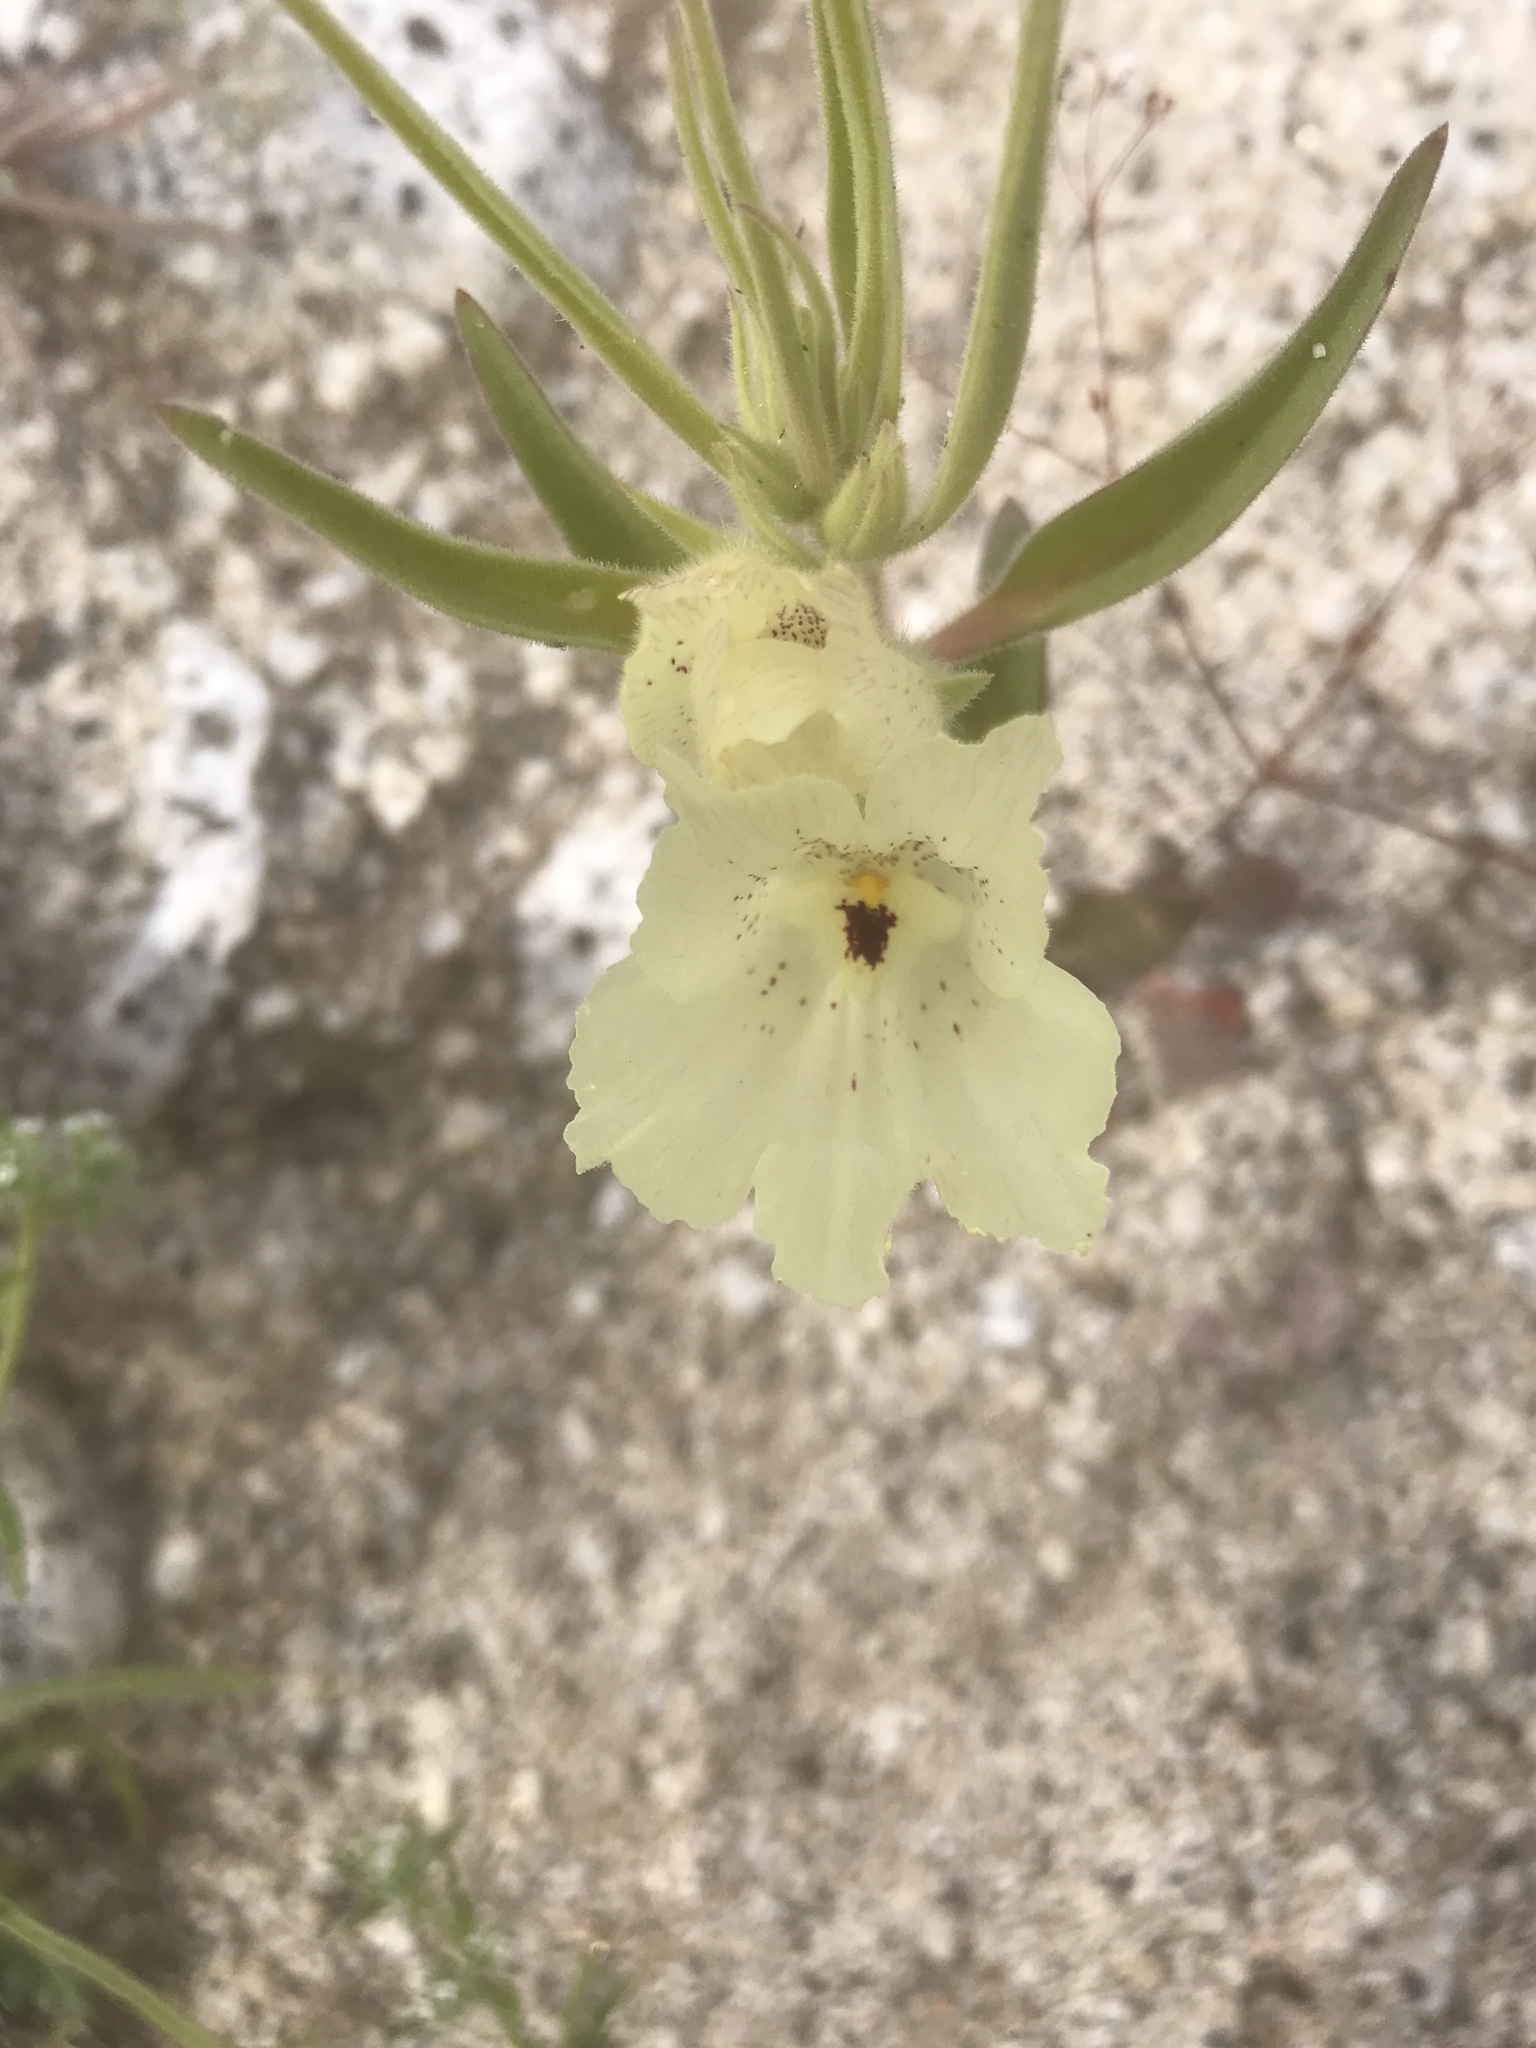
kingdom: Plantae
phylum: Tracheophyta
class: Magnoliopsida
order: Lamiales
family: Plantaginaceae
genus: Mohavea
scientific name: Mohavea confertiflora
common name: Ghost flower
